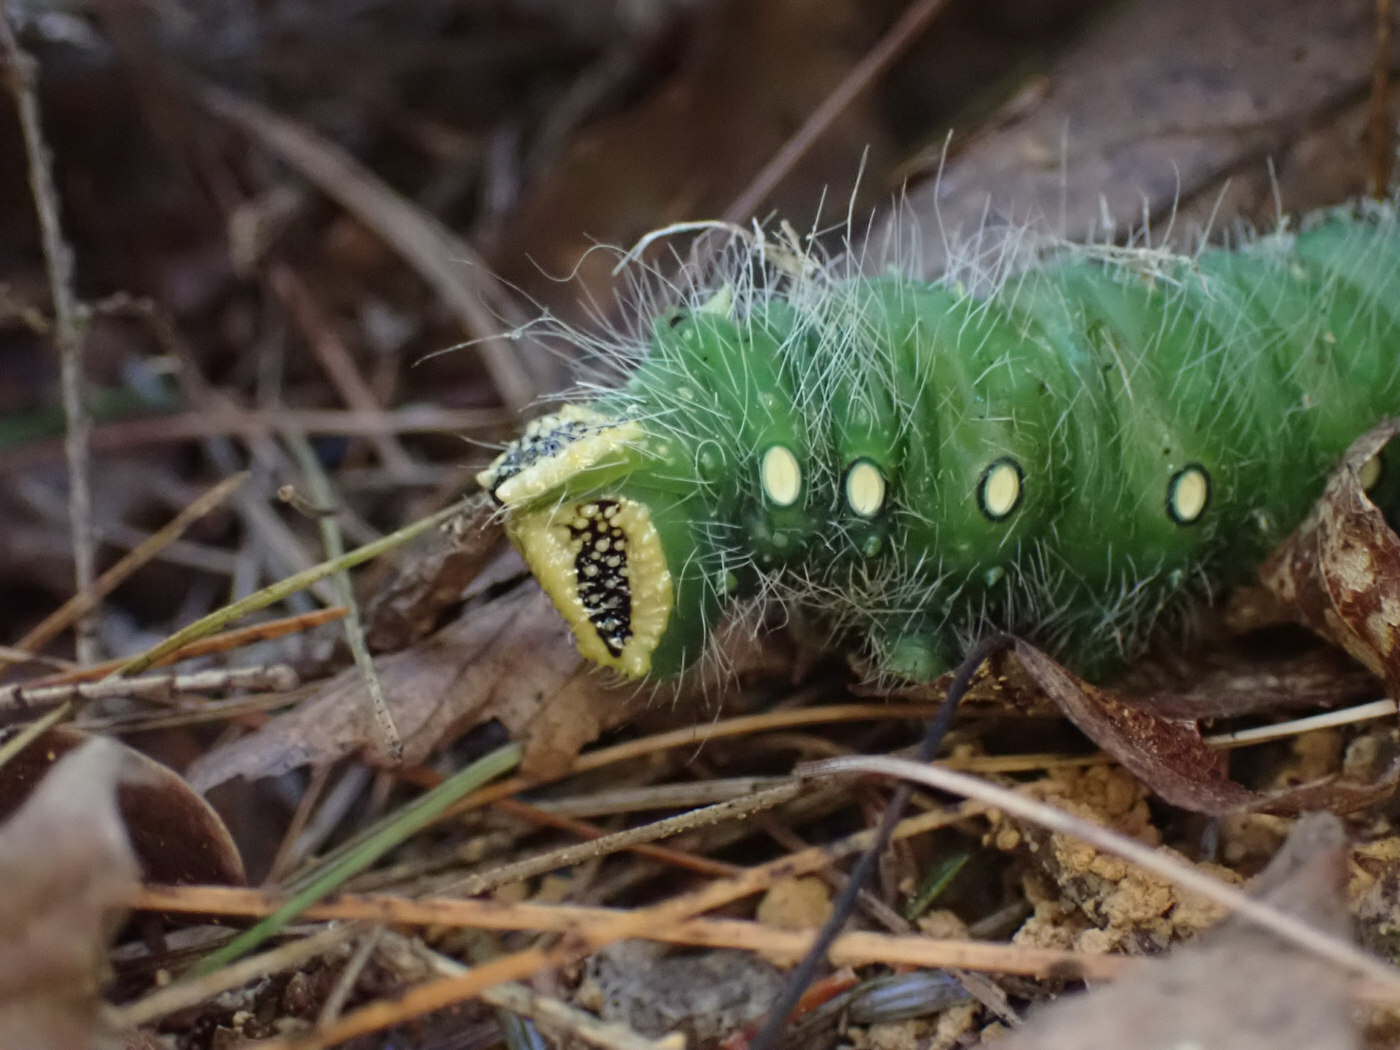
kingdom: Animalia
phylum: Arthropoda
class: Insecta
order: Lepidoptera
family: Saturniidae
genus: Eacles
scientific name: Eacles imperialis
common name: Imperial moth
